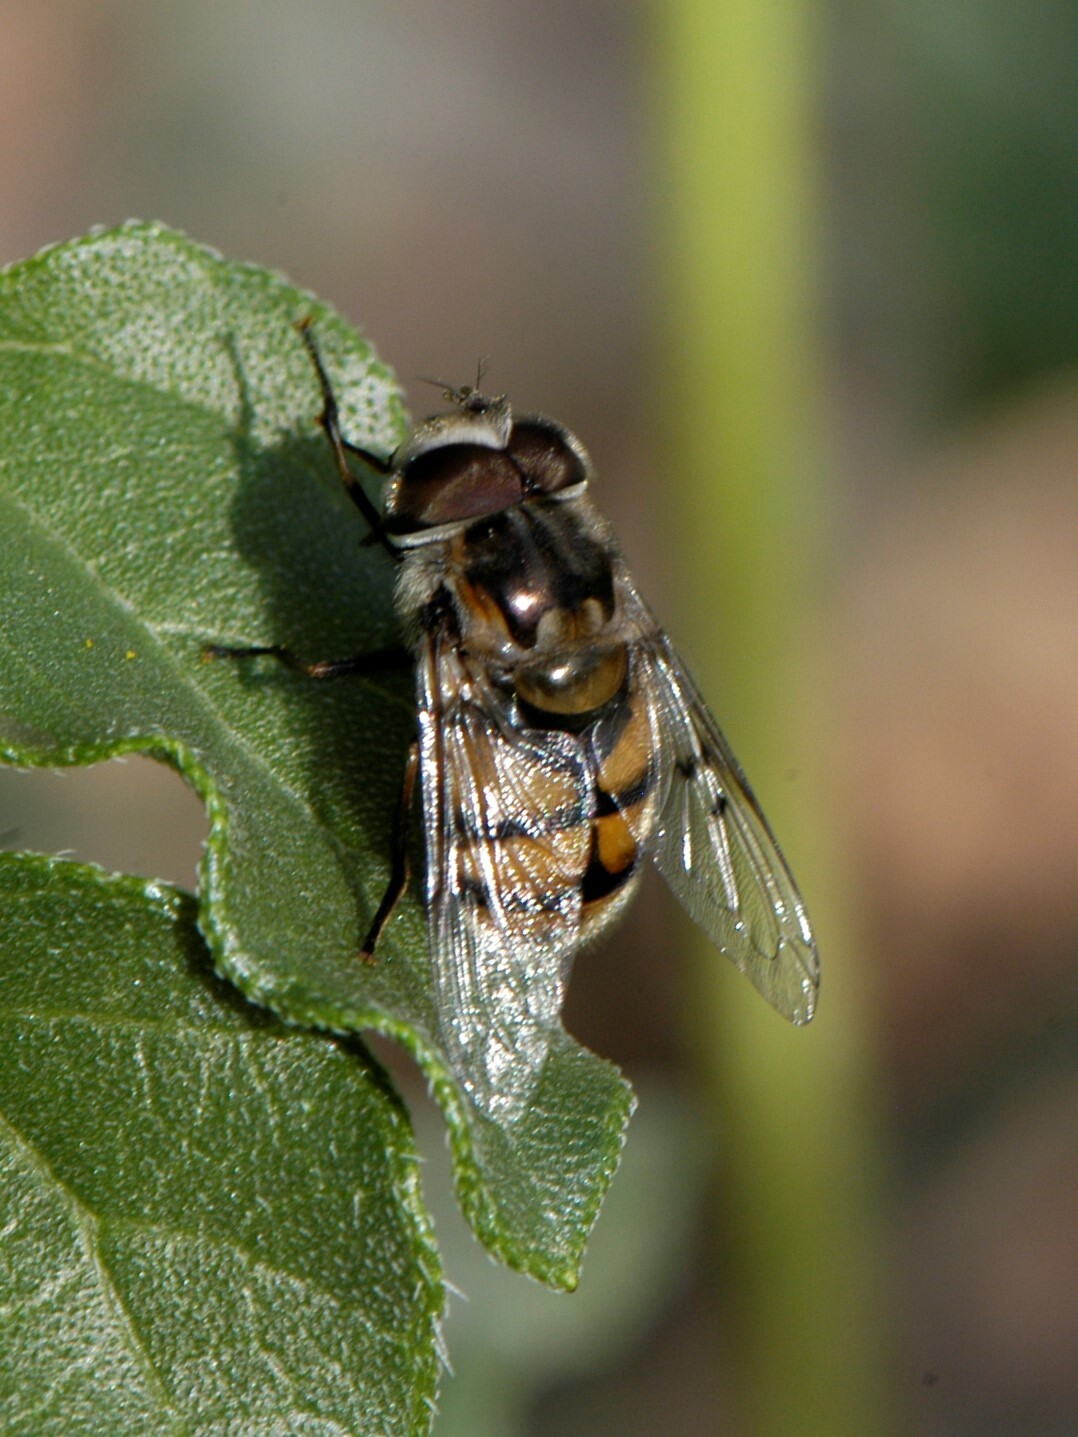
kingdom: Animalia
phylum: Arthropoda
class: Insecta
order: Diptera
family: Syrphidae
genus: Copestylum
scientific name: Copestylum avidum
